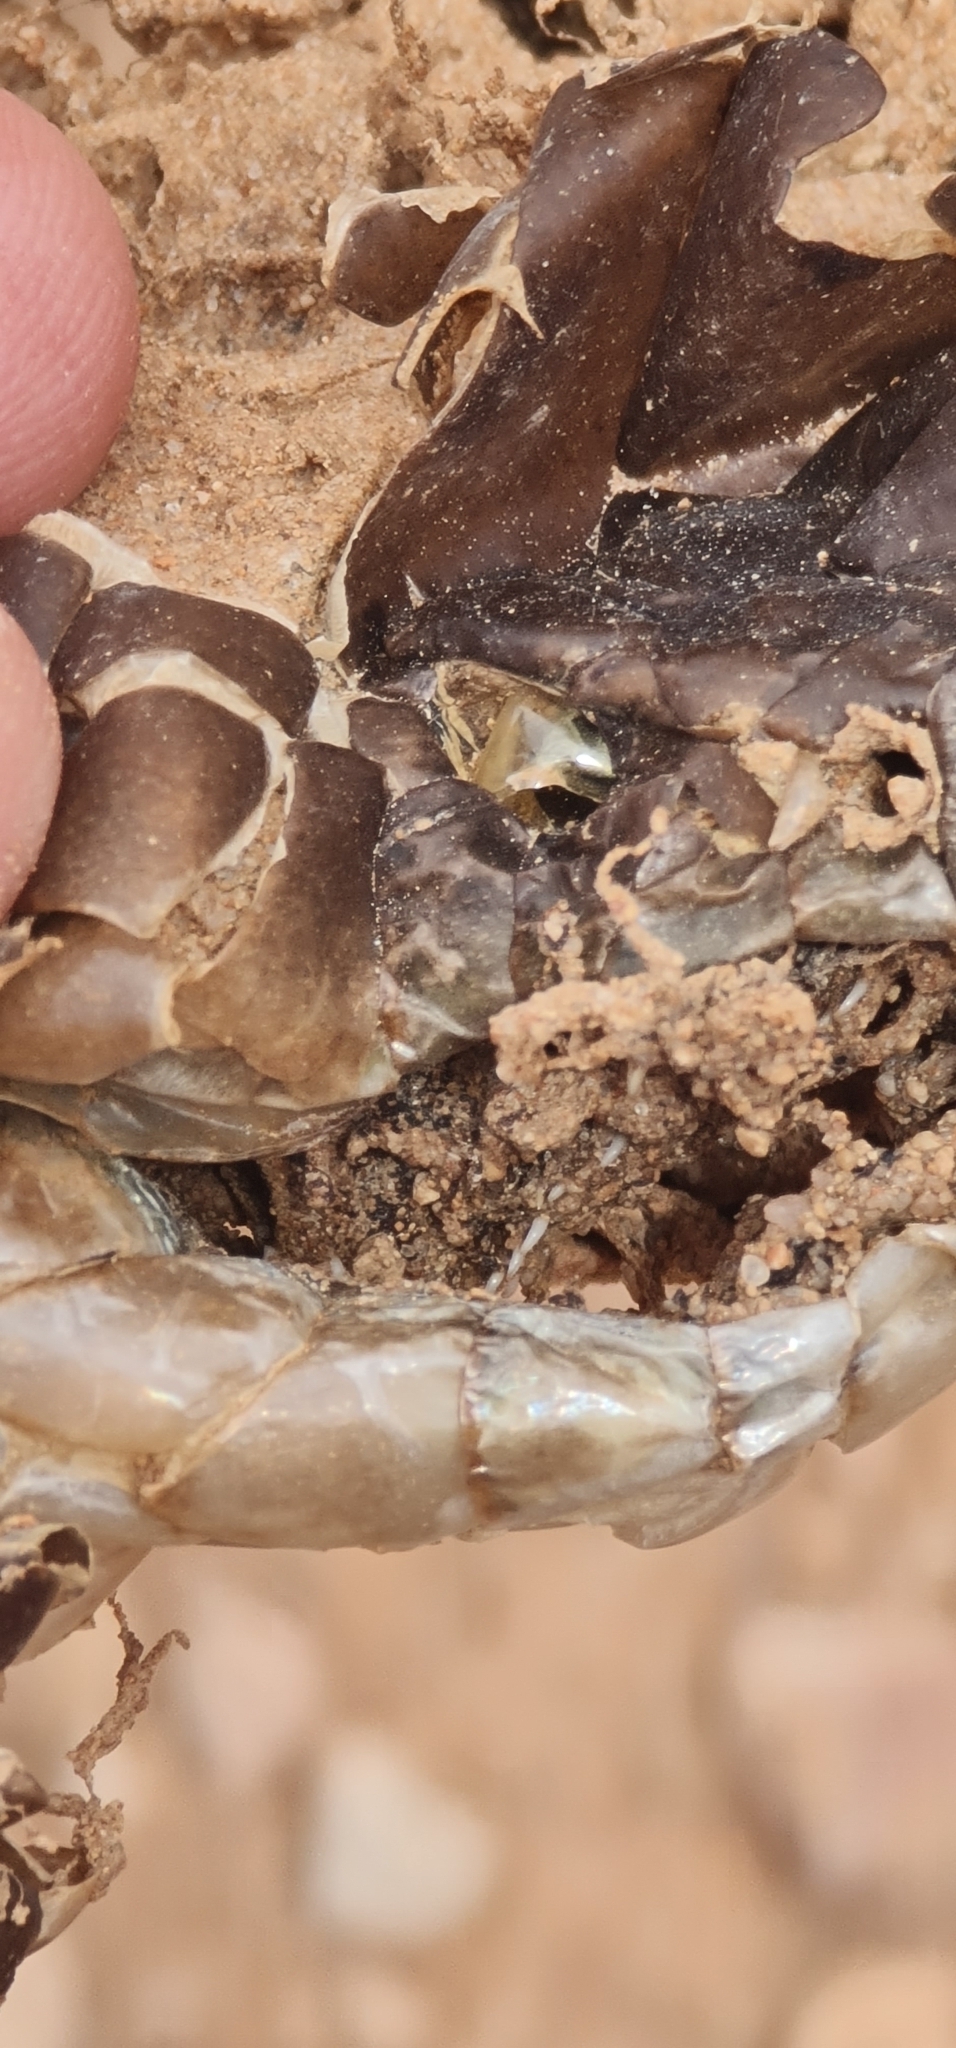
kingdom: Animalia
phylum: Chordata
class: Squamata
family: Elapidae
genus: Pseudechis
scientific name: Pseudechis australis
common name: King brown snake
